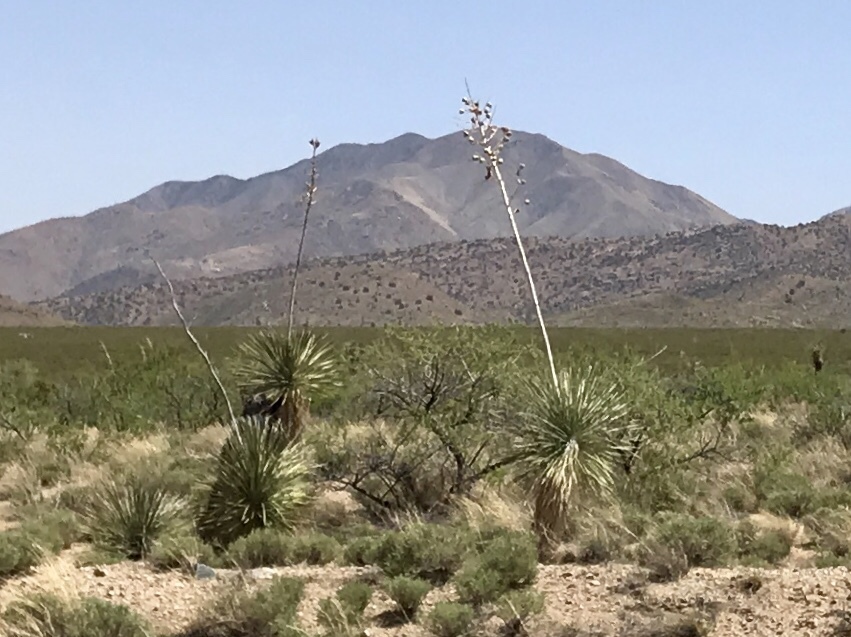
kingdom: Plantae
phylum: Tracheophyta
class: Liliopsida
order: Asparagales
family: Asparagaceae
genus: Yucca
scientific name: Yucca elata
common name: Palmella
